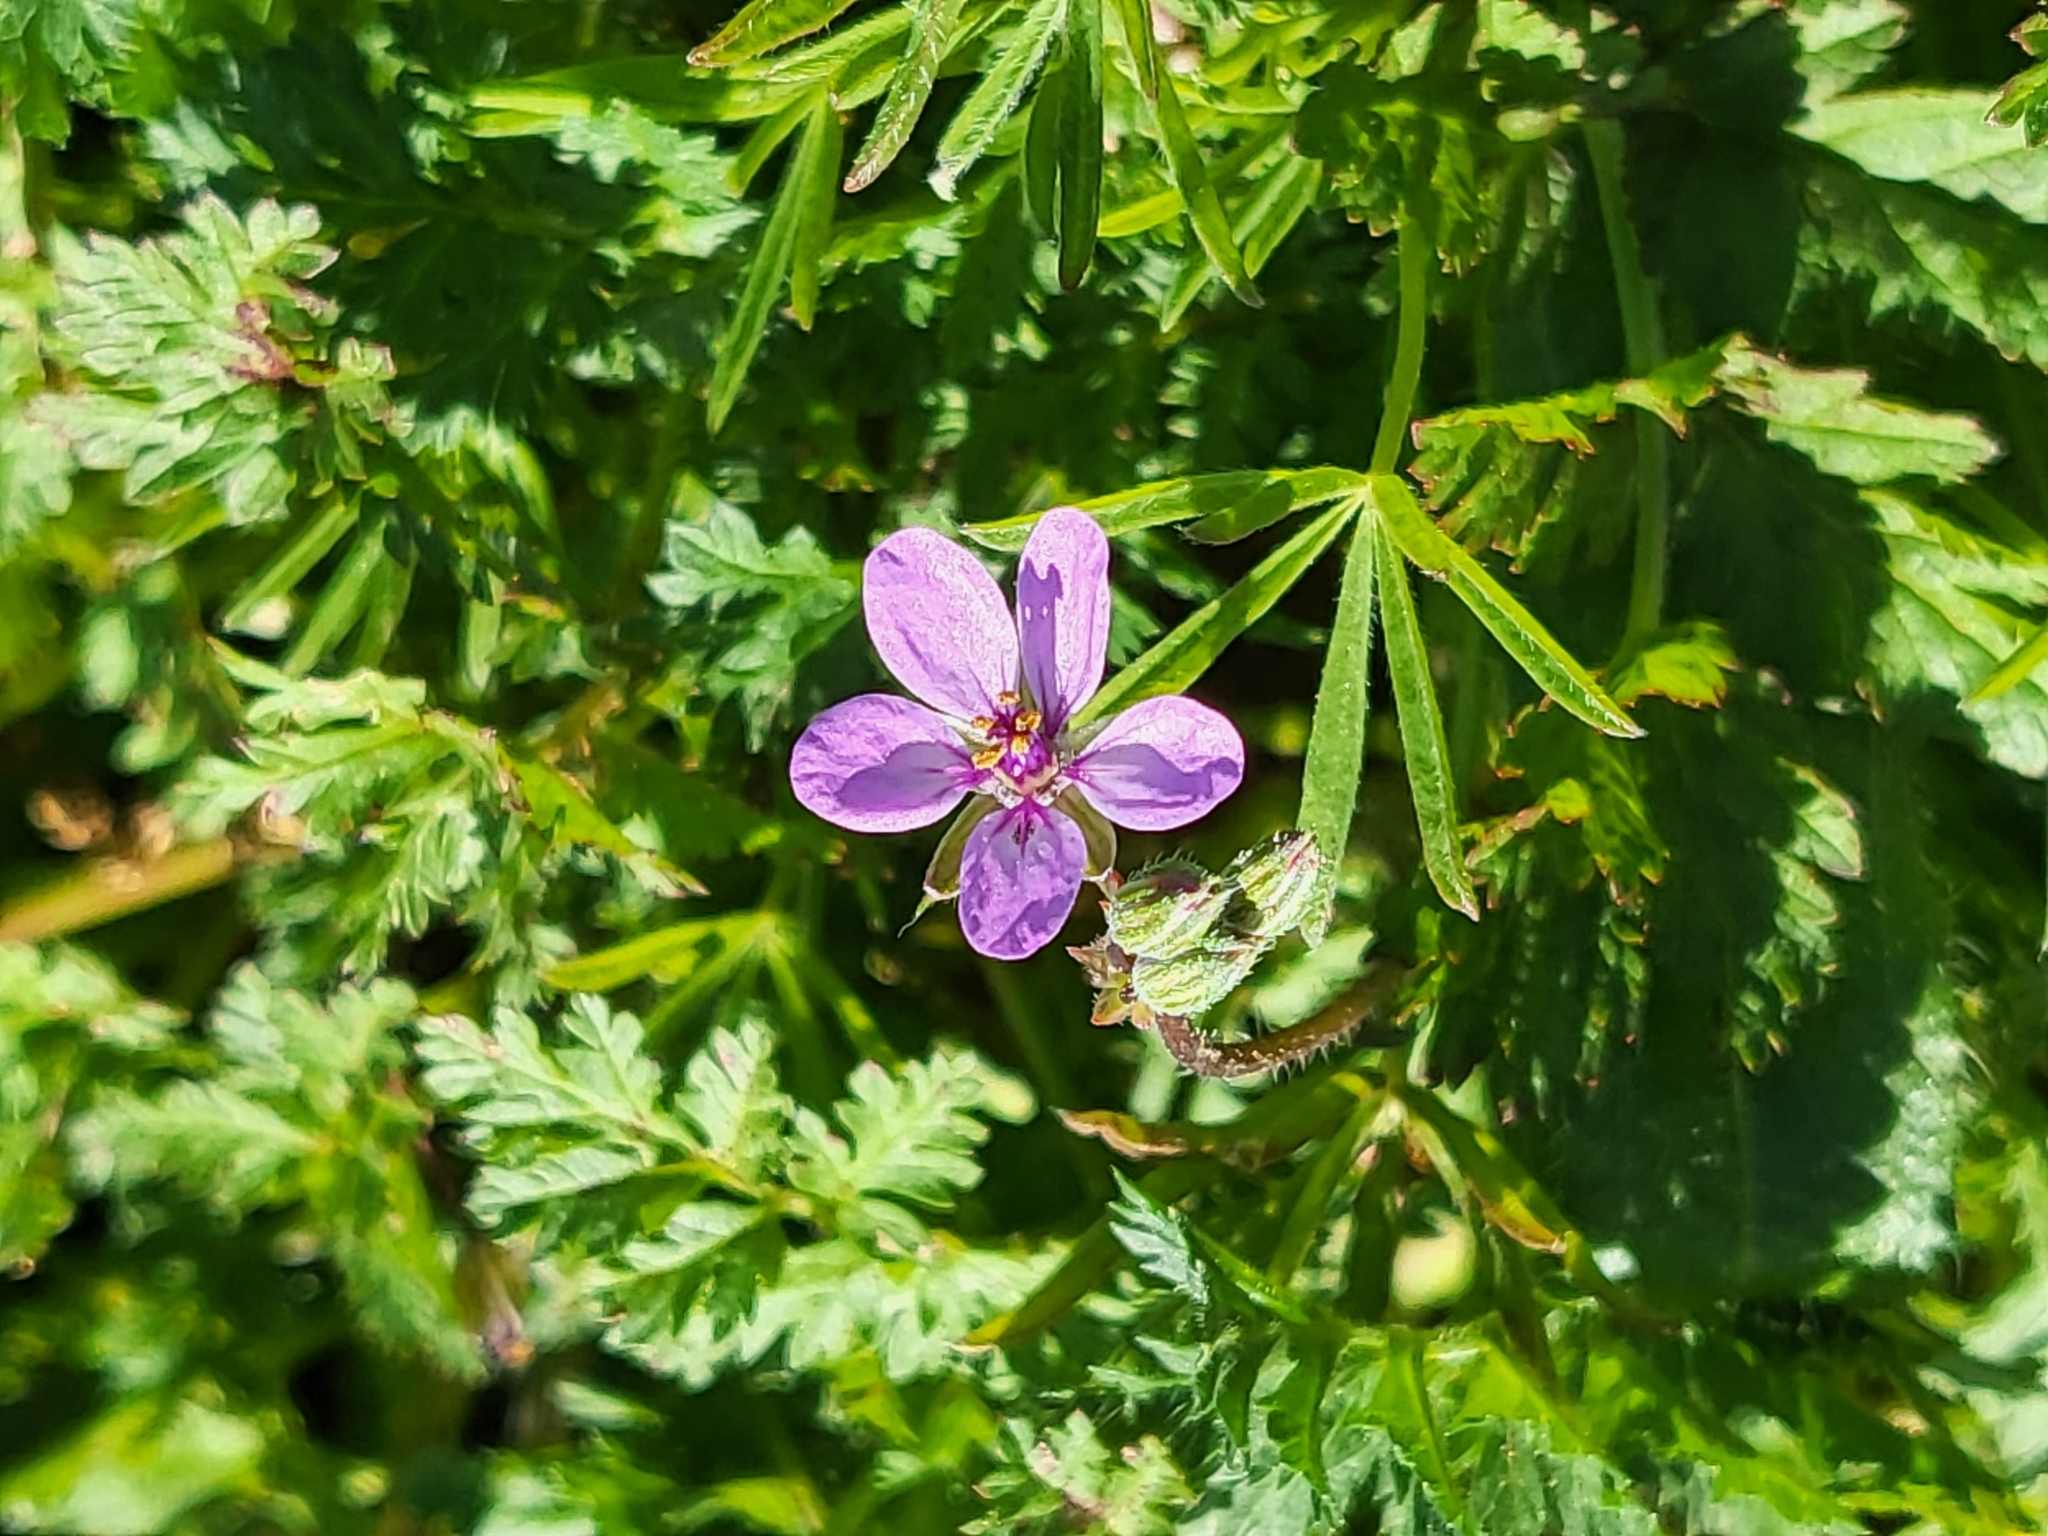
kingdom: Plantae
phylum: Tracheophyta
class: Magnoliopsida
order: Geraniales
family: Geraniaceae
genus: Erodium
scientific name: Erodium cicutarium
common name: Common stork's-bill
